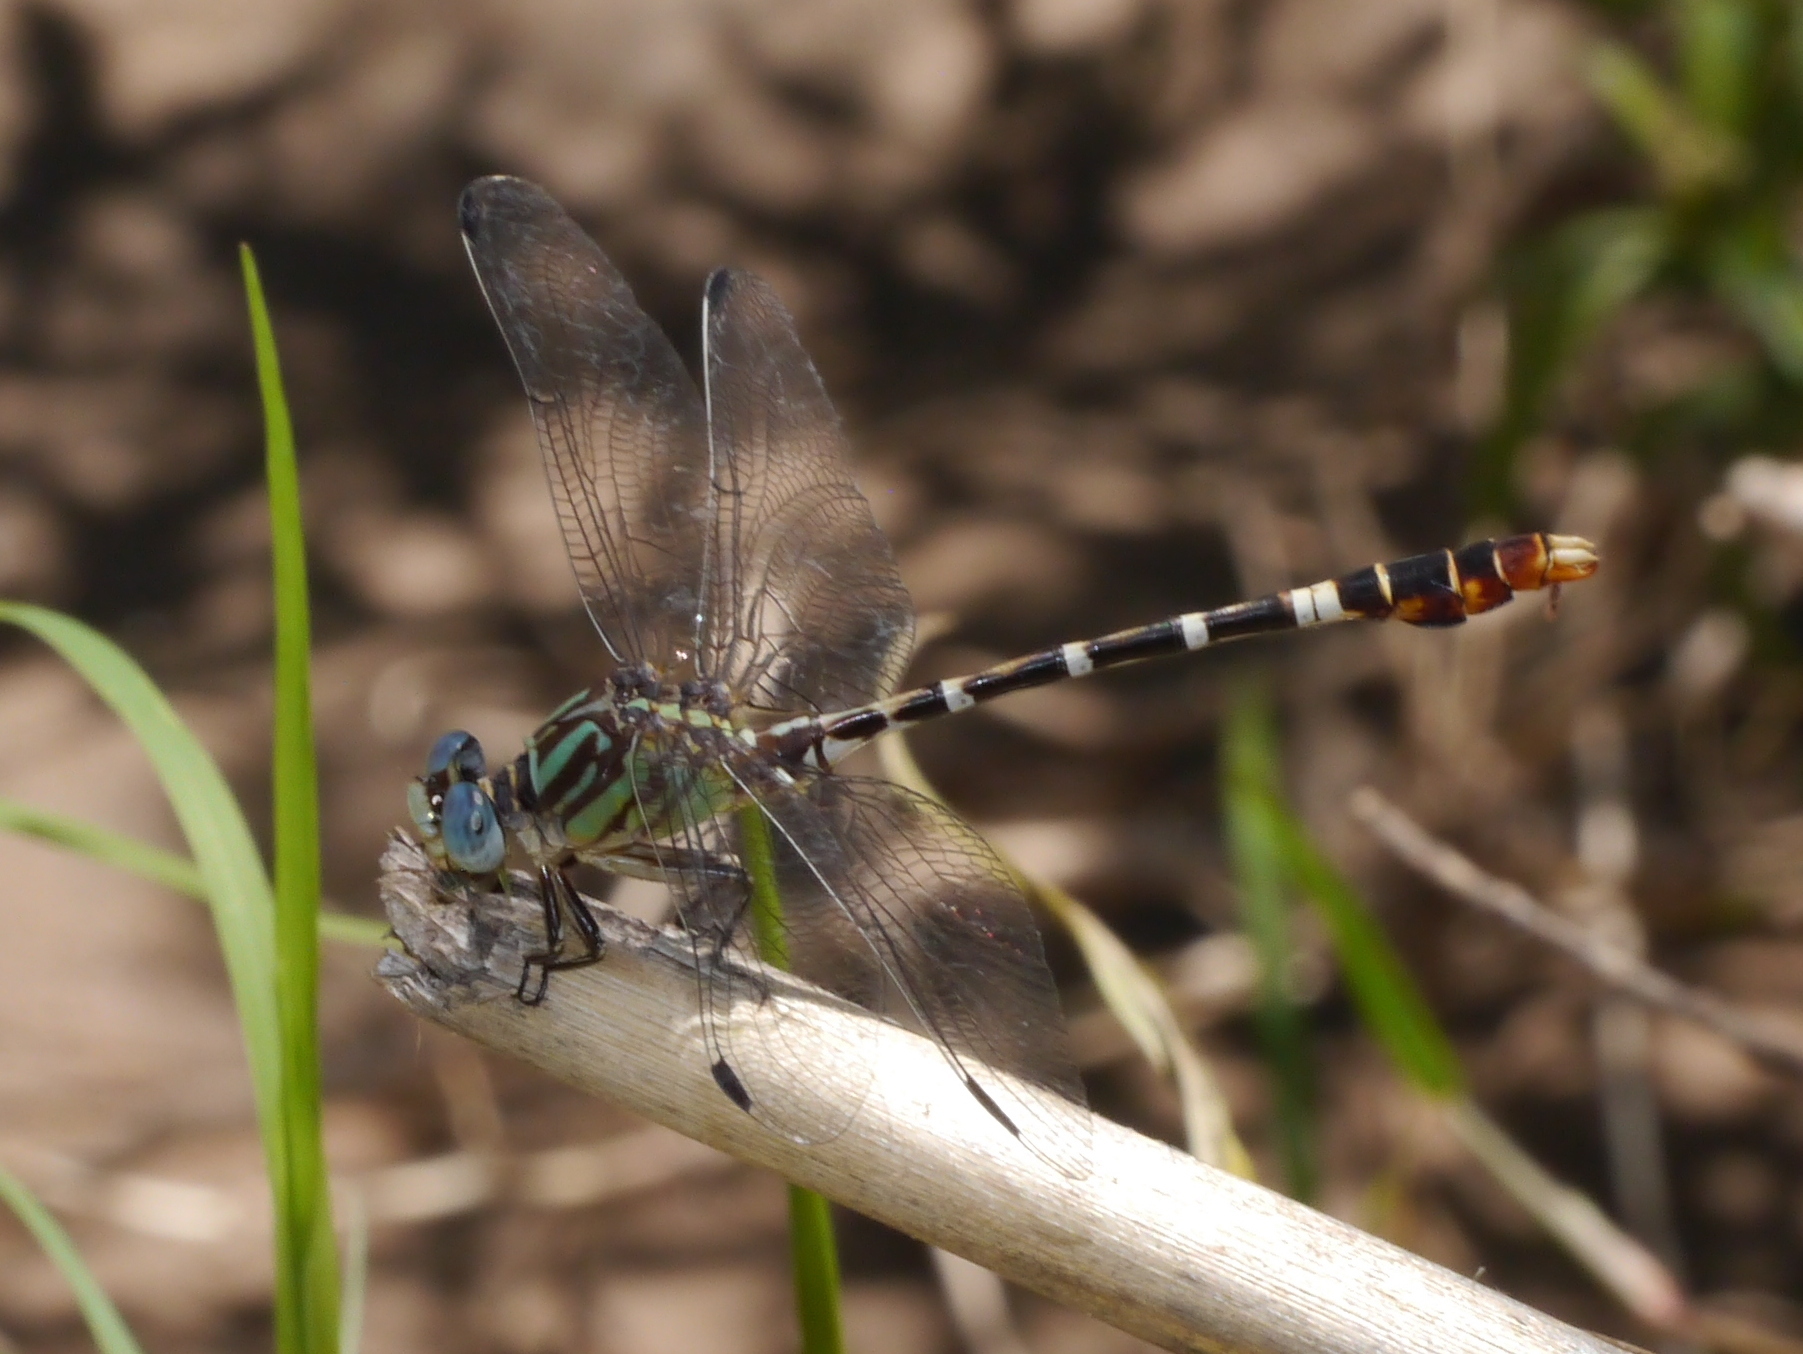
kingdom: Animalia
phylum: Arthropoda
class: Insecta
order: Odonata
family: Gomphidae
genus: Erpetogomphus
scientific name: Erpetogomphus lampropeltis
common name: Serpent ringtail
